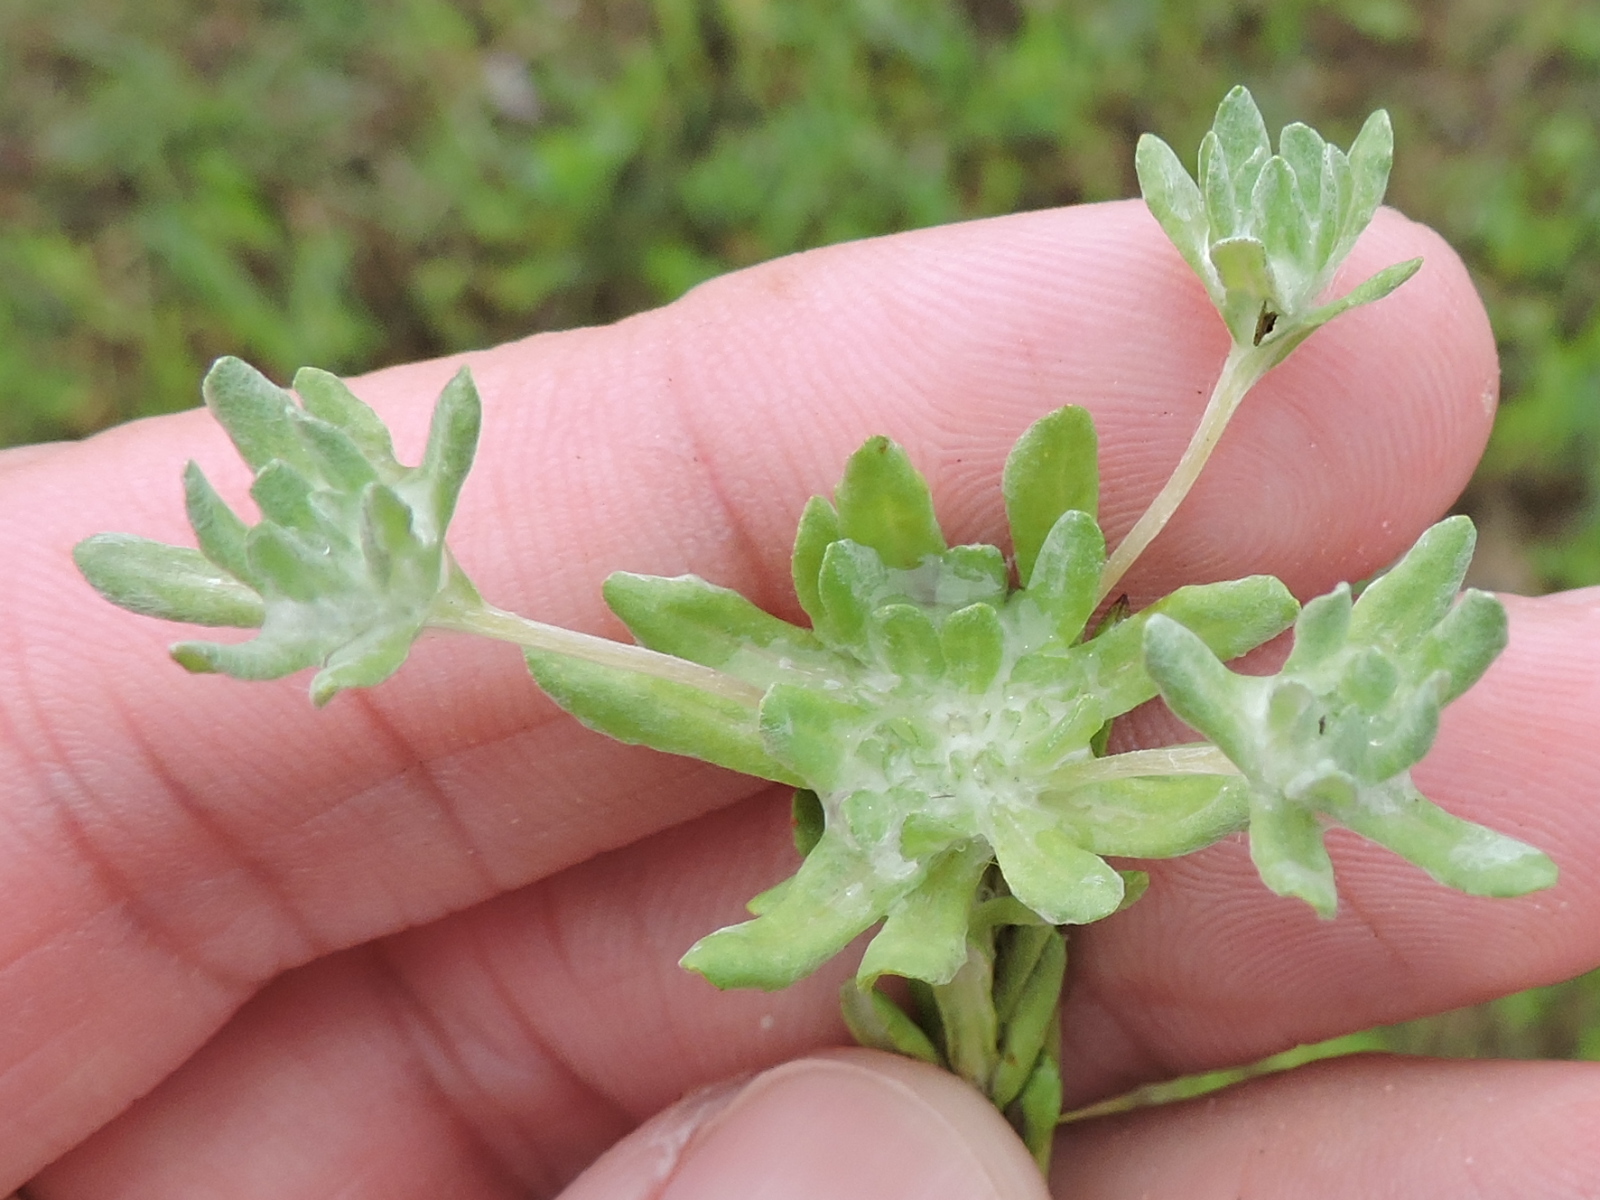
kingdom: Plantae
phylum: Tracheophyta
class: Magnoliopsida
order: Asterales
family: Asteraceae
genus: Diaperia
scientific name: Diaperia prolifera
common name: Big-head rabbit-tobacco
